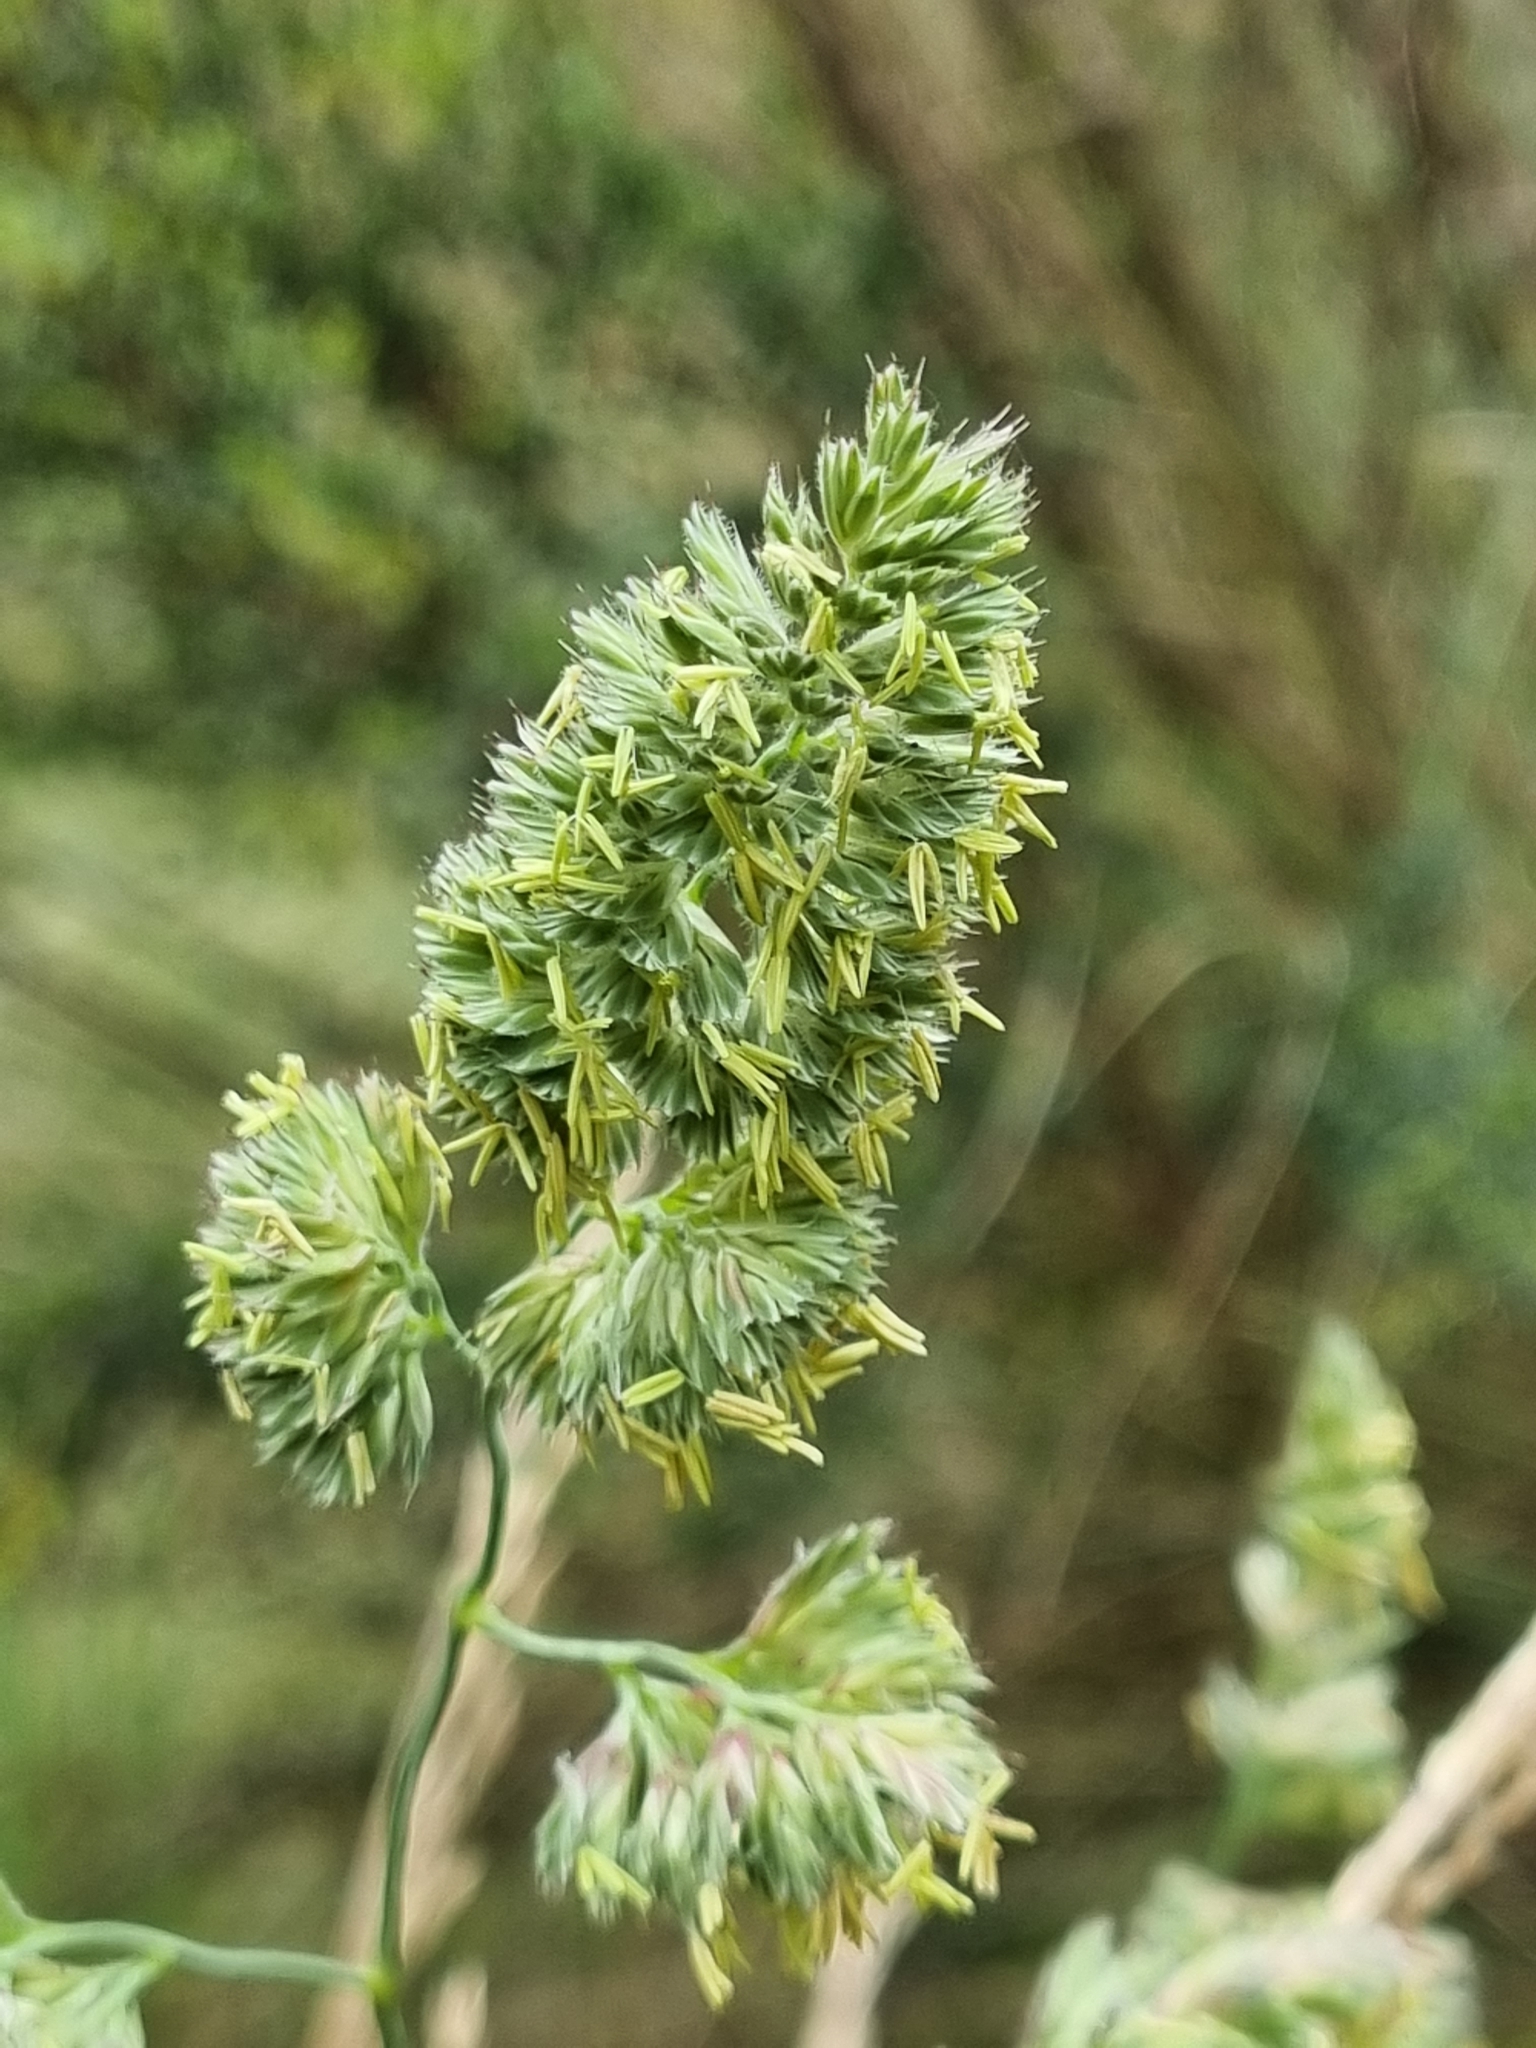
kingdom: Plantae
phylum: Tracheophyta
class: Liliopsida
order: Poales
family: Poaceae
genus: Dactylis
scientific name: Dactylis glomerata
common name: Orchardgrass
